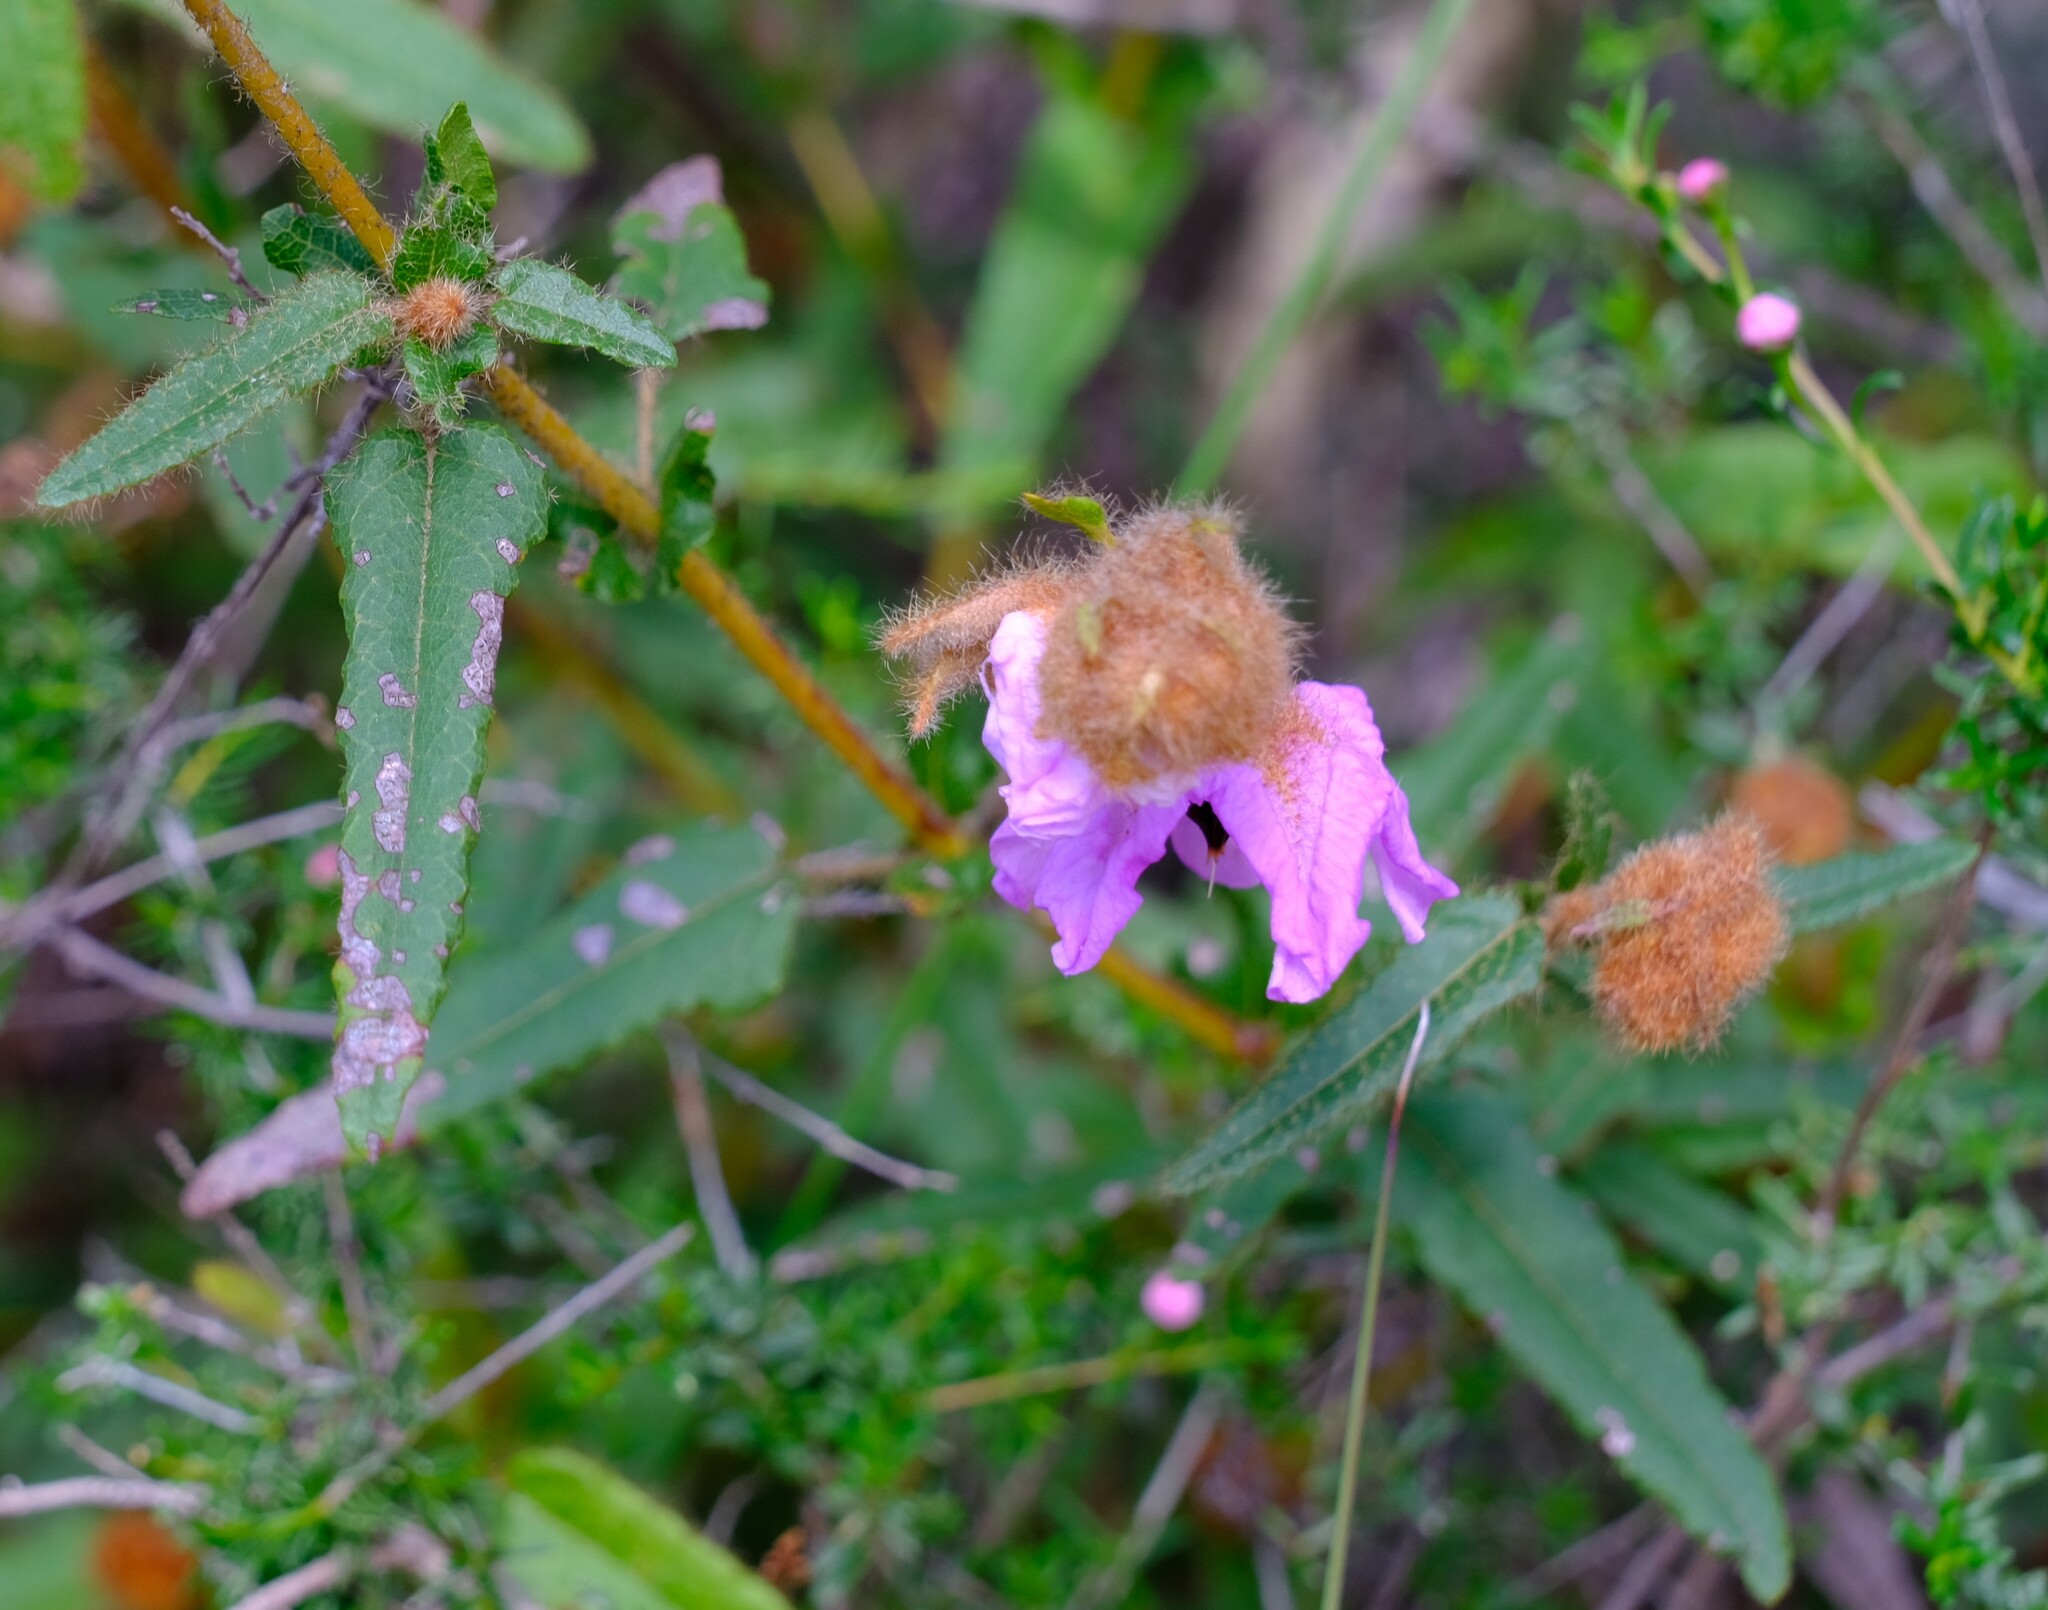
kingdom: Plantae
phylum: Tracheophyta
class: Magnoliopsida
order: Malvales
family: Malvaceae
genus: Thomasia
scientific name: Thomasia grandiflora
